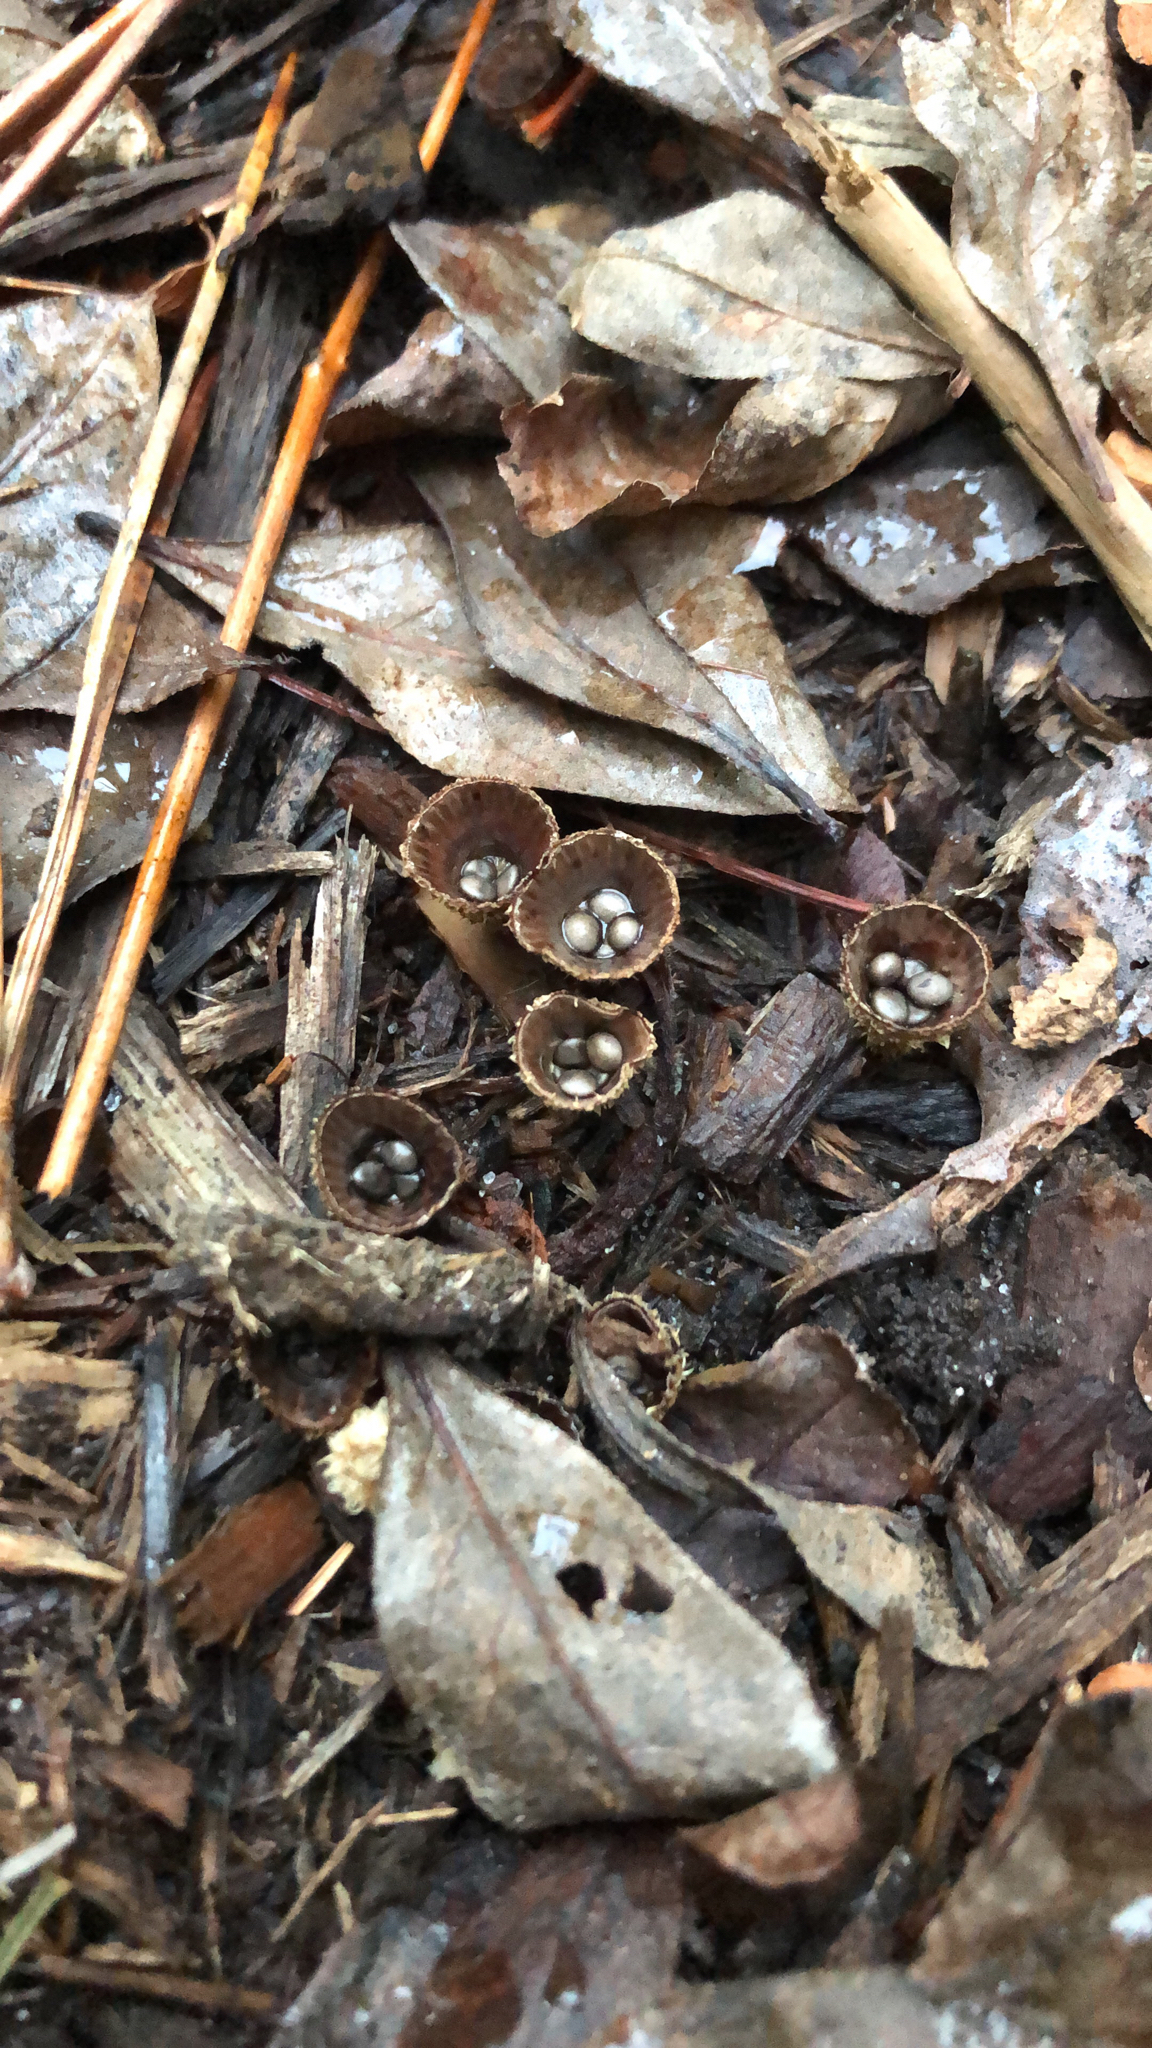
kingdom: Fungi
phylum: Basidiomycota
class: Agaricomycetes
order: Agaricales
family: Agaricaceae
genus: Cyathus
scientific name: Cyathus striatus
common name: Fluted bird's nest
